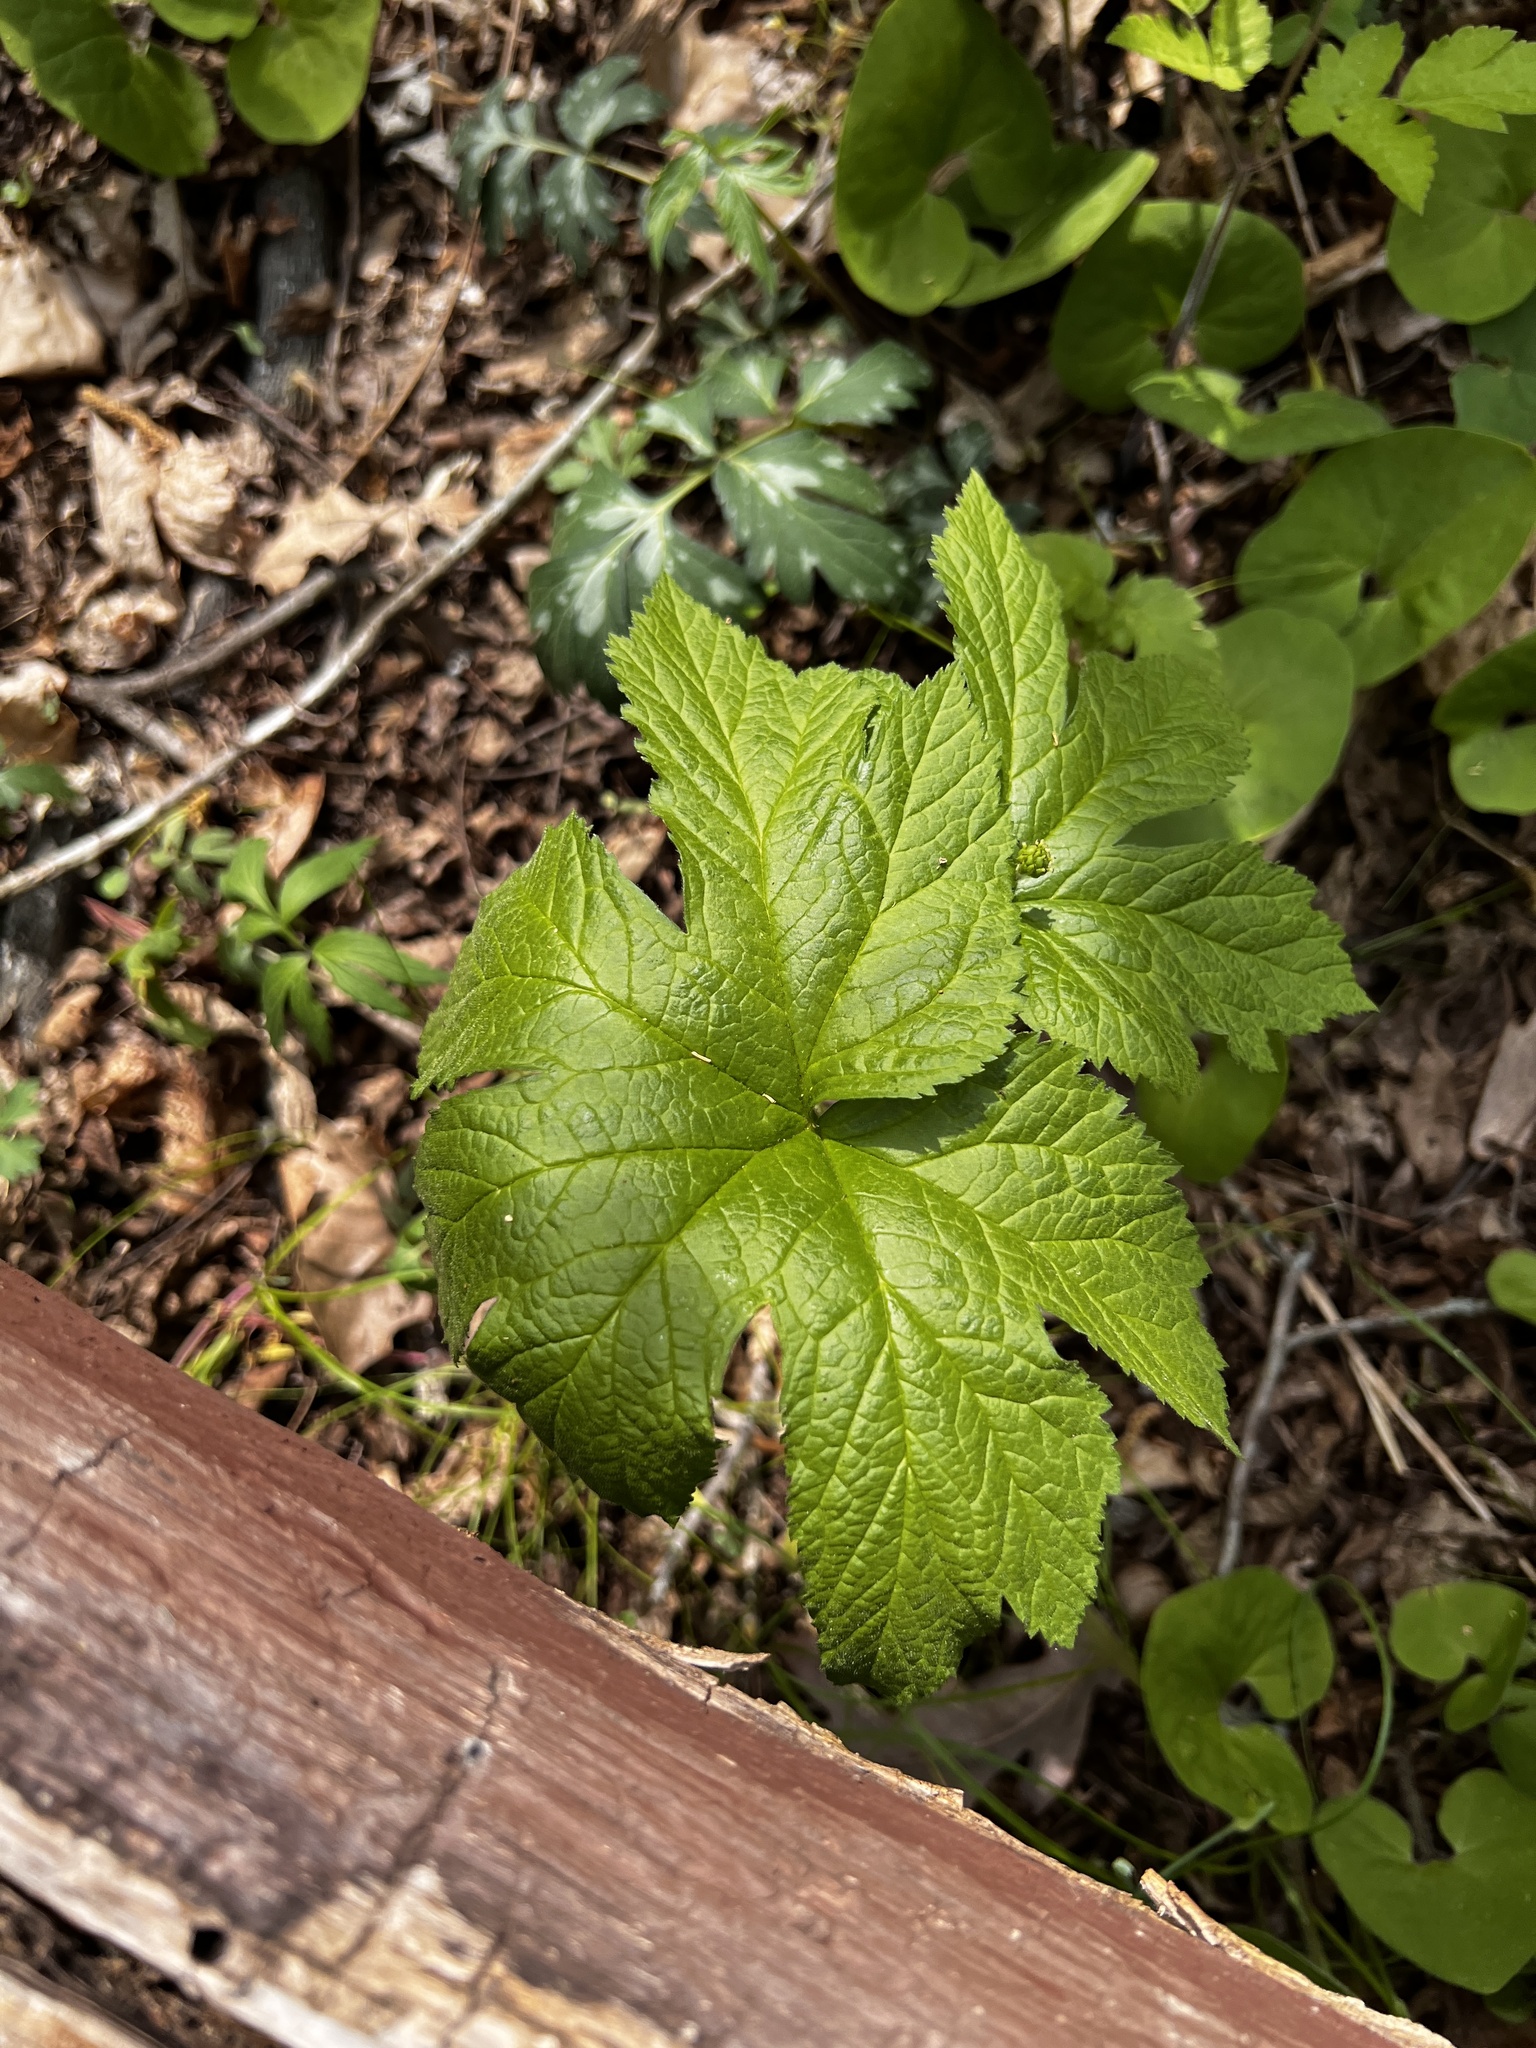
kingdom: Plantae
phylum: Tracheophyta
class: Magnoliopsida
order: Ranunculales
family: Ranunculaceae
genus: Hydrastis
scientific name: Hydrastis canadensis
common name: Goldenseal
